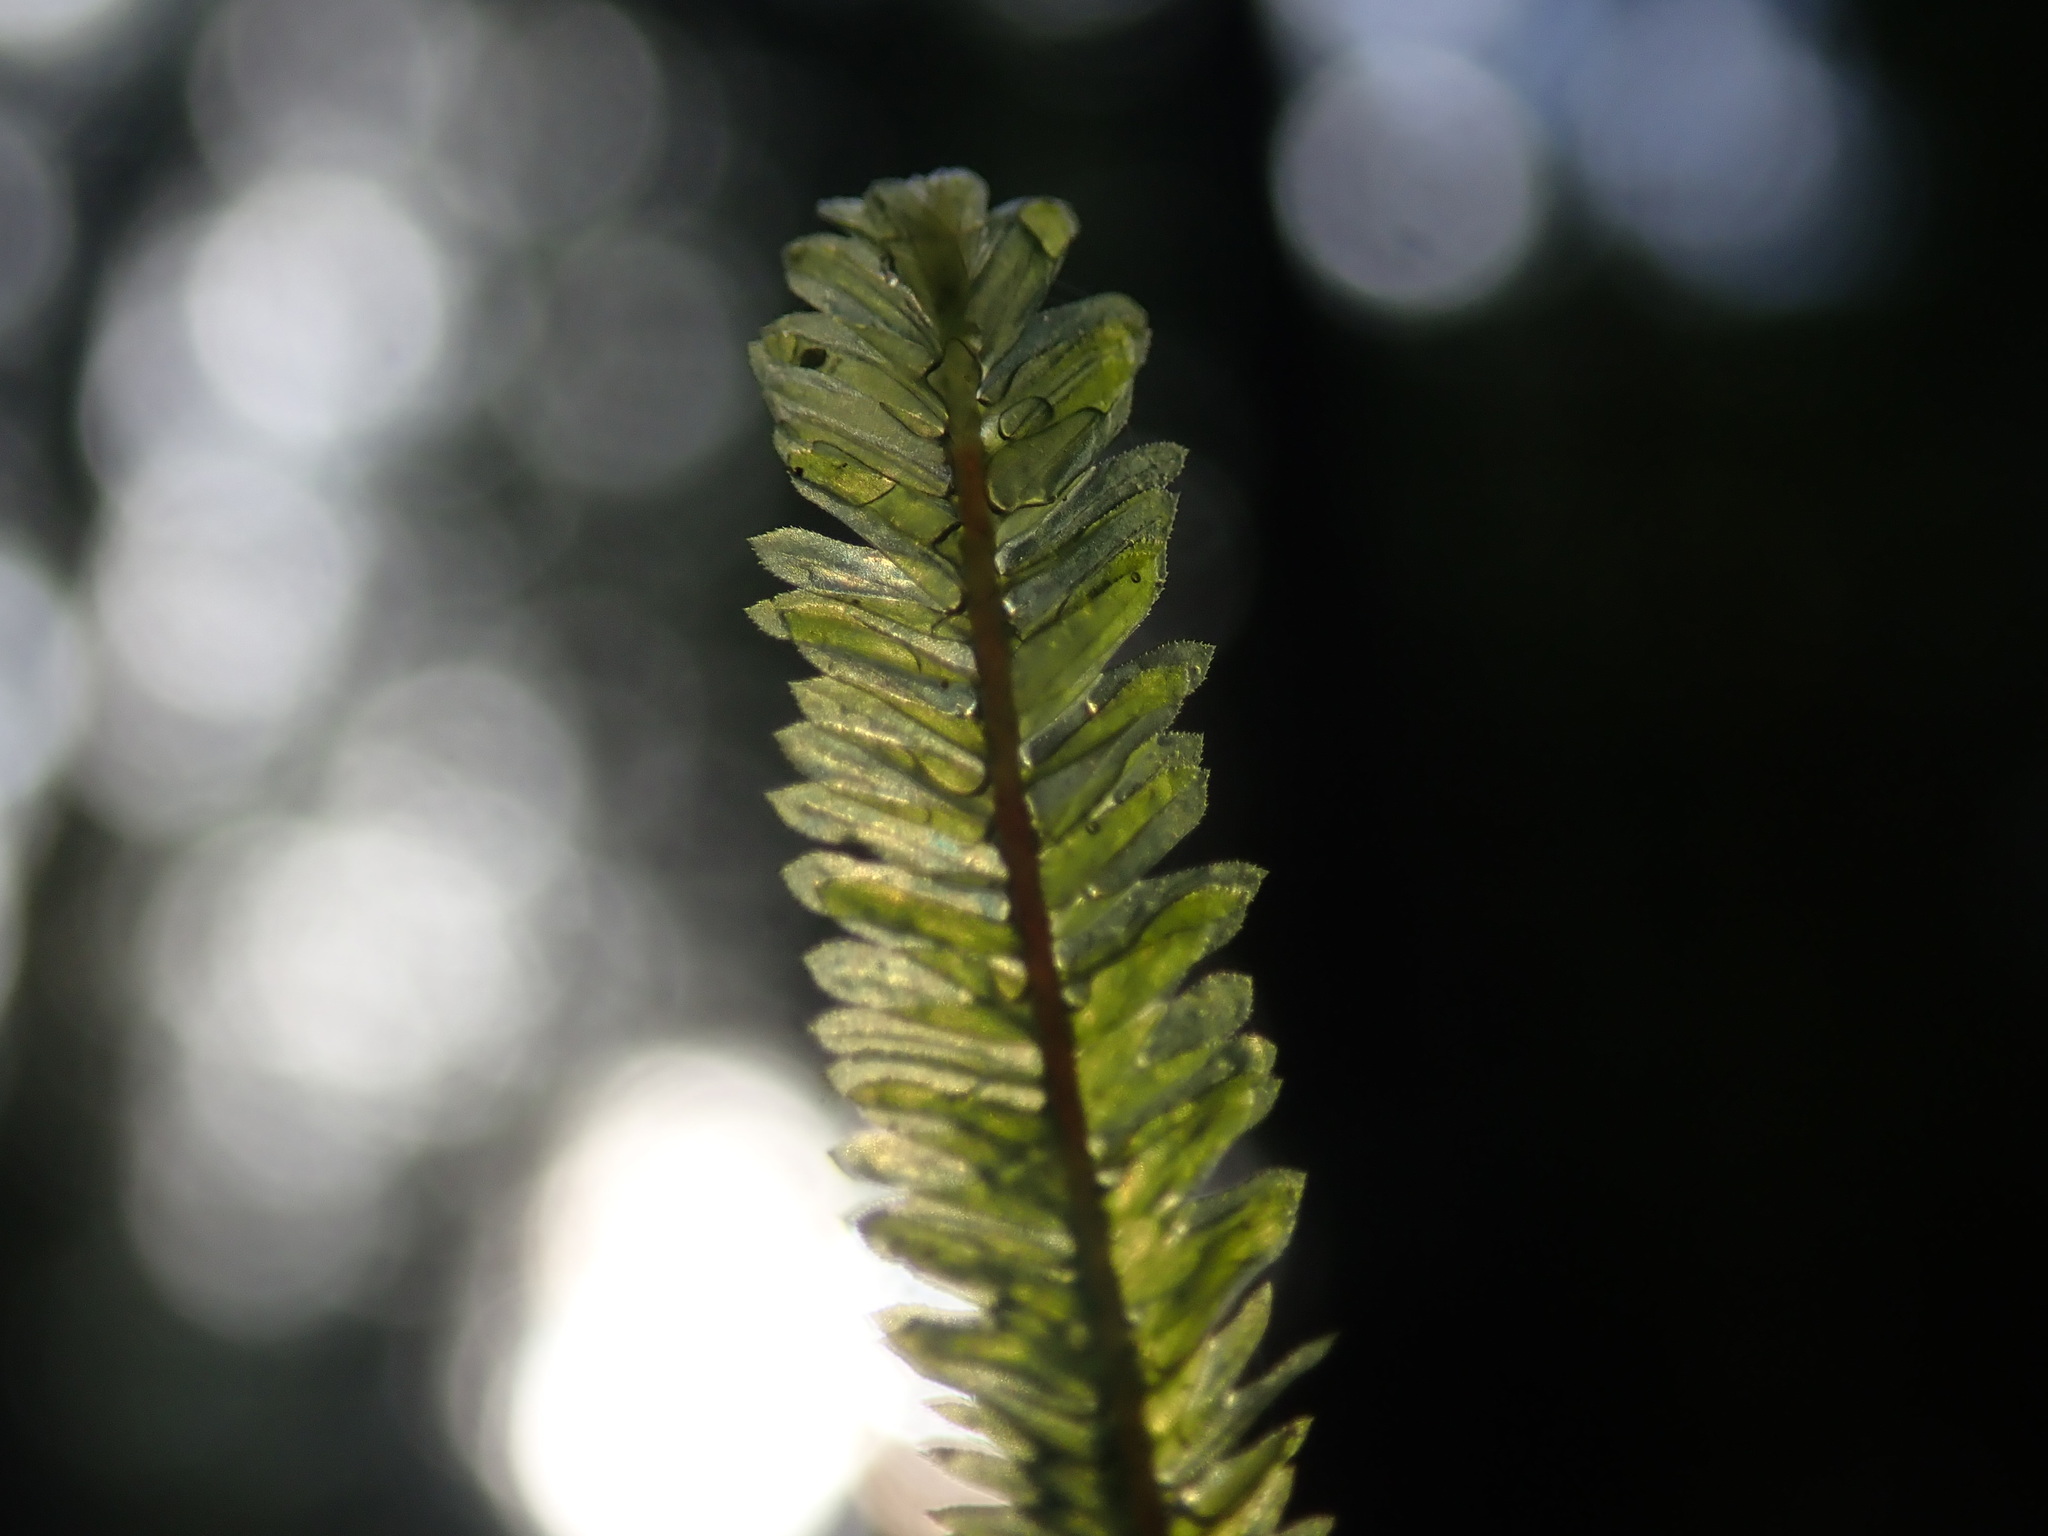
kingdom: Plantae
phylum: Bryophyta
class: Bryopsida
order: Hypnales
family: Neckeraceae
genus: Dannorrisia
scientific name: Dannorrisia bigelovii
